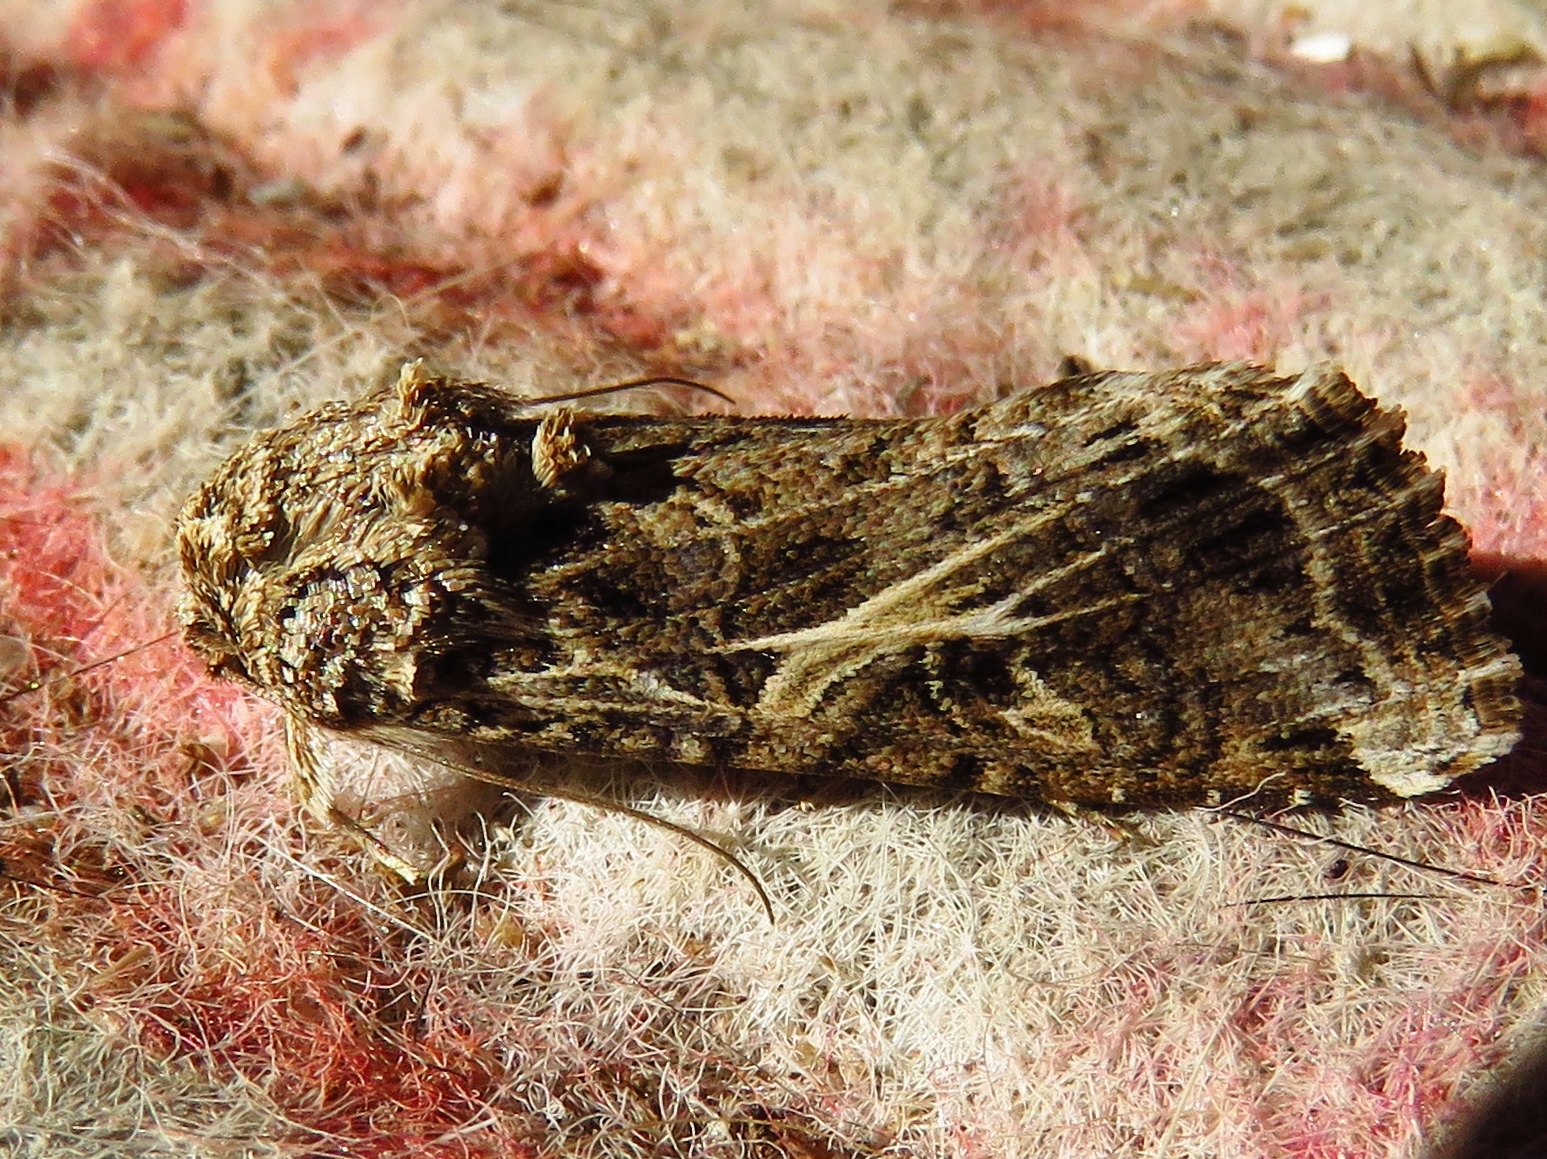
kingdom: Animalia
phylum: Arthropoda
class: Insecta
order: Lepidoptera
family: Noctuidae
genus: Spodoptera
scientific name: Spodoptera ornithogalli
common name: Yellow-striped armyworm
